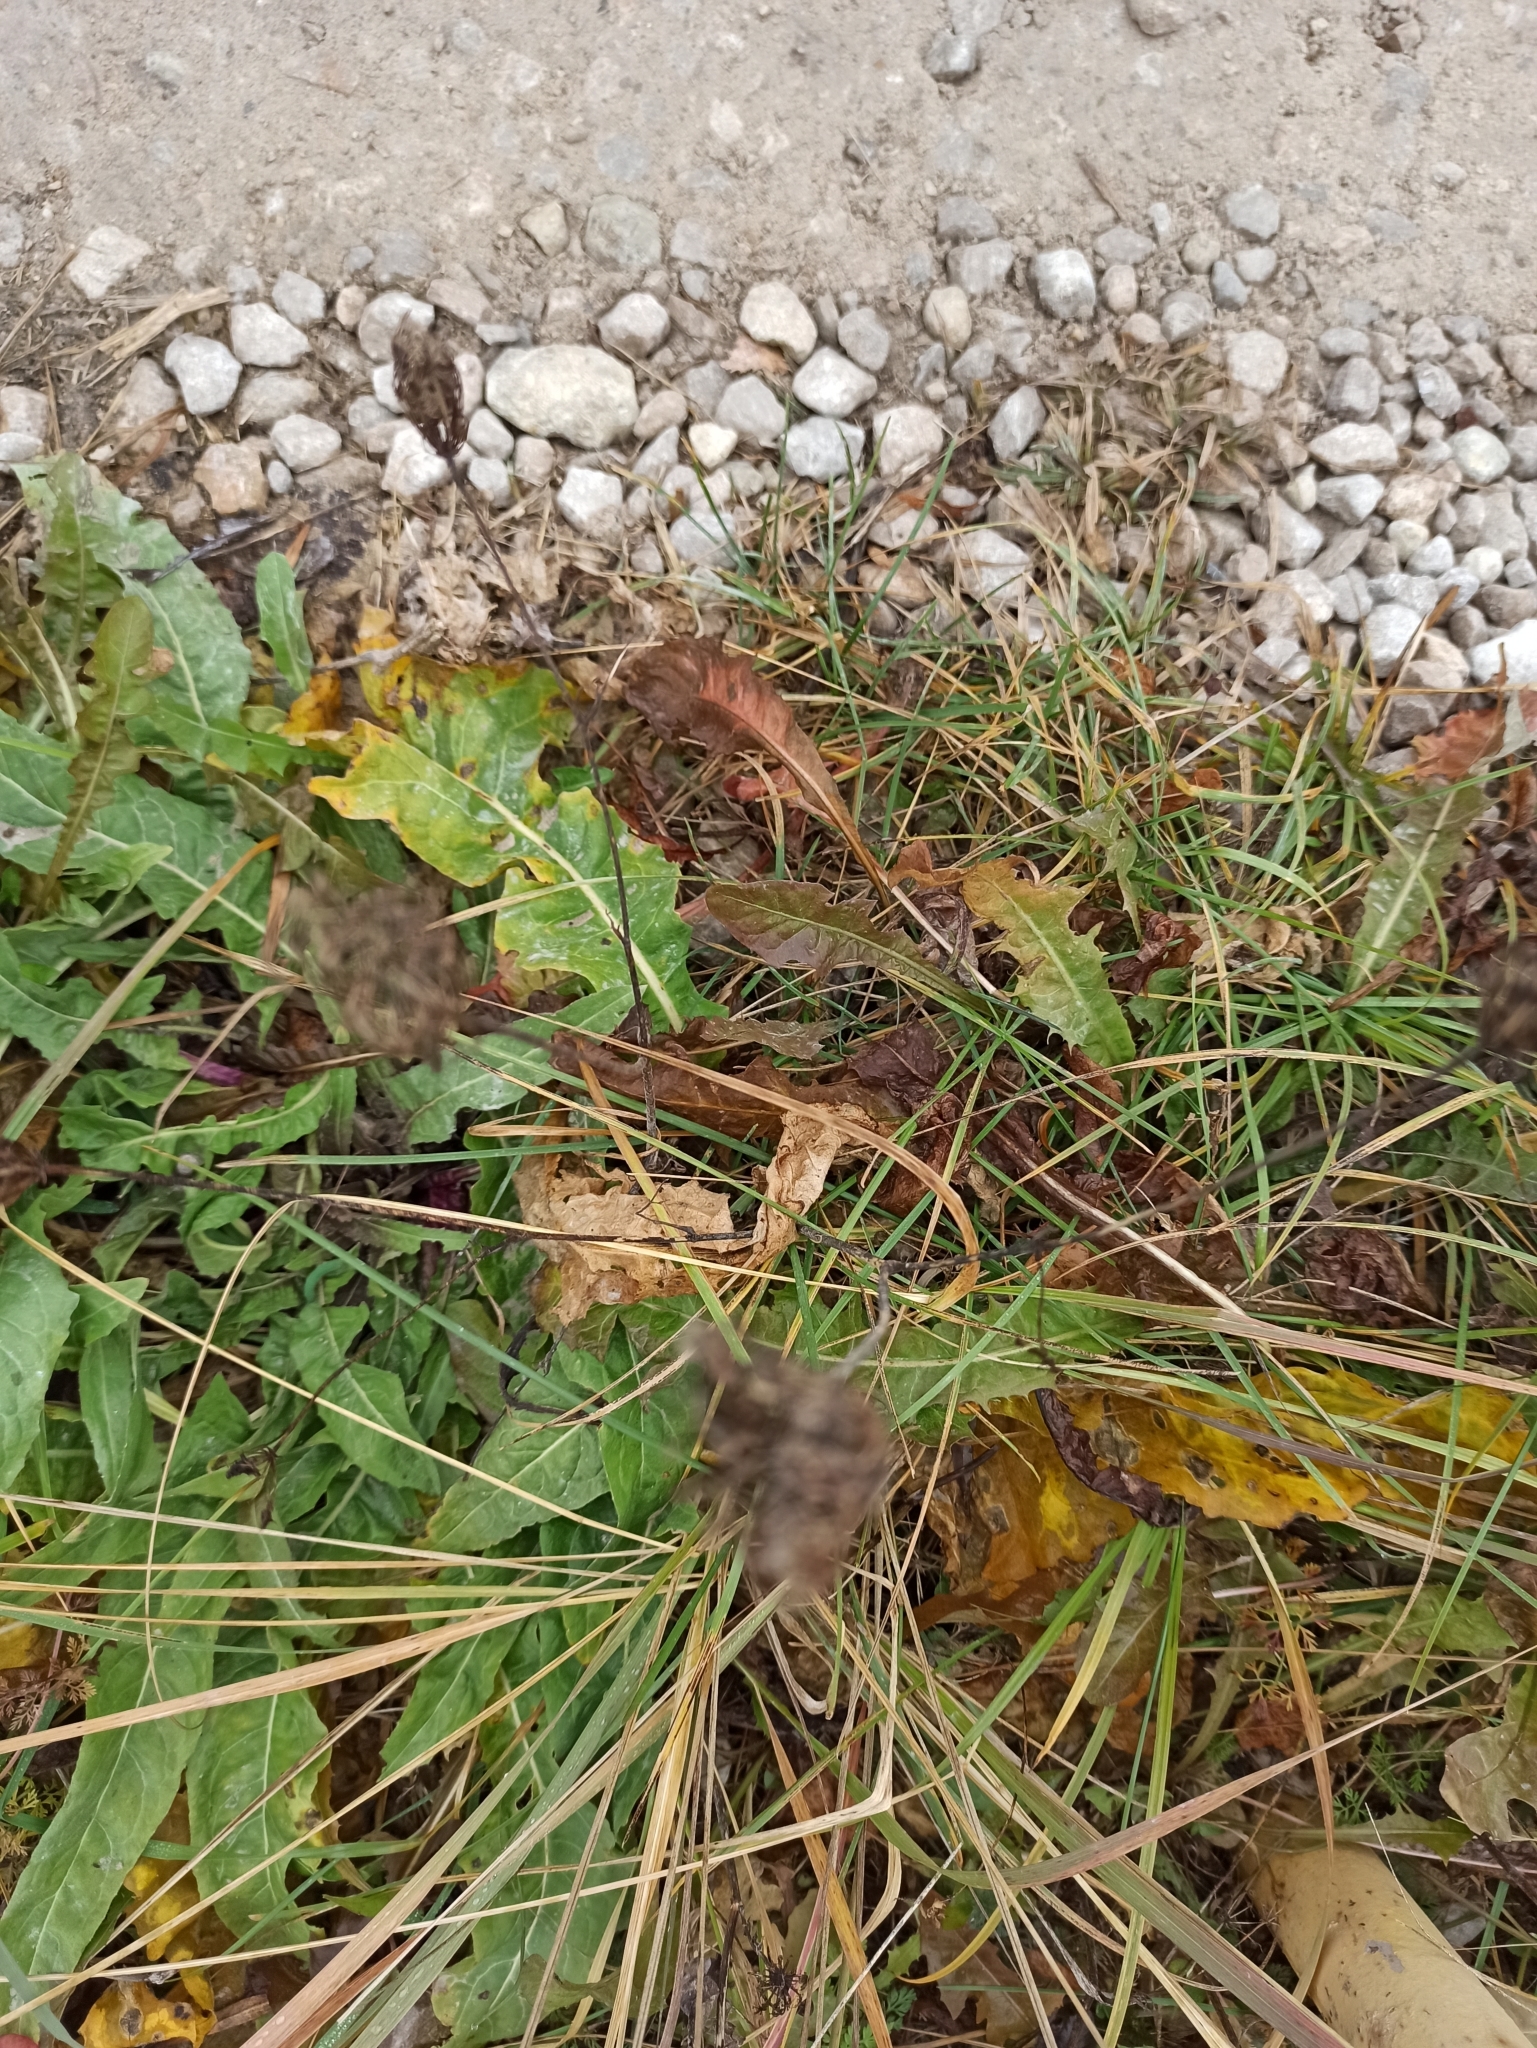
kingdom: Plantae
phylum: Tracheophyta
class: Magnoliopsida
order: Apiales
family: Apiaceae
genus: Daucus
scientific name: Daucus carota
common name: Wild carrot
